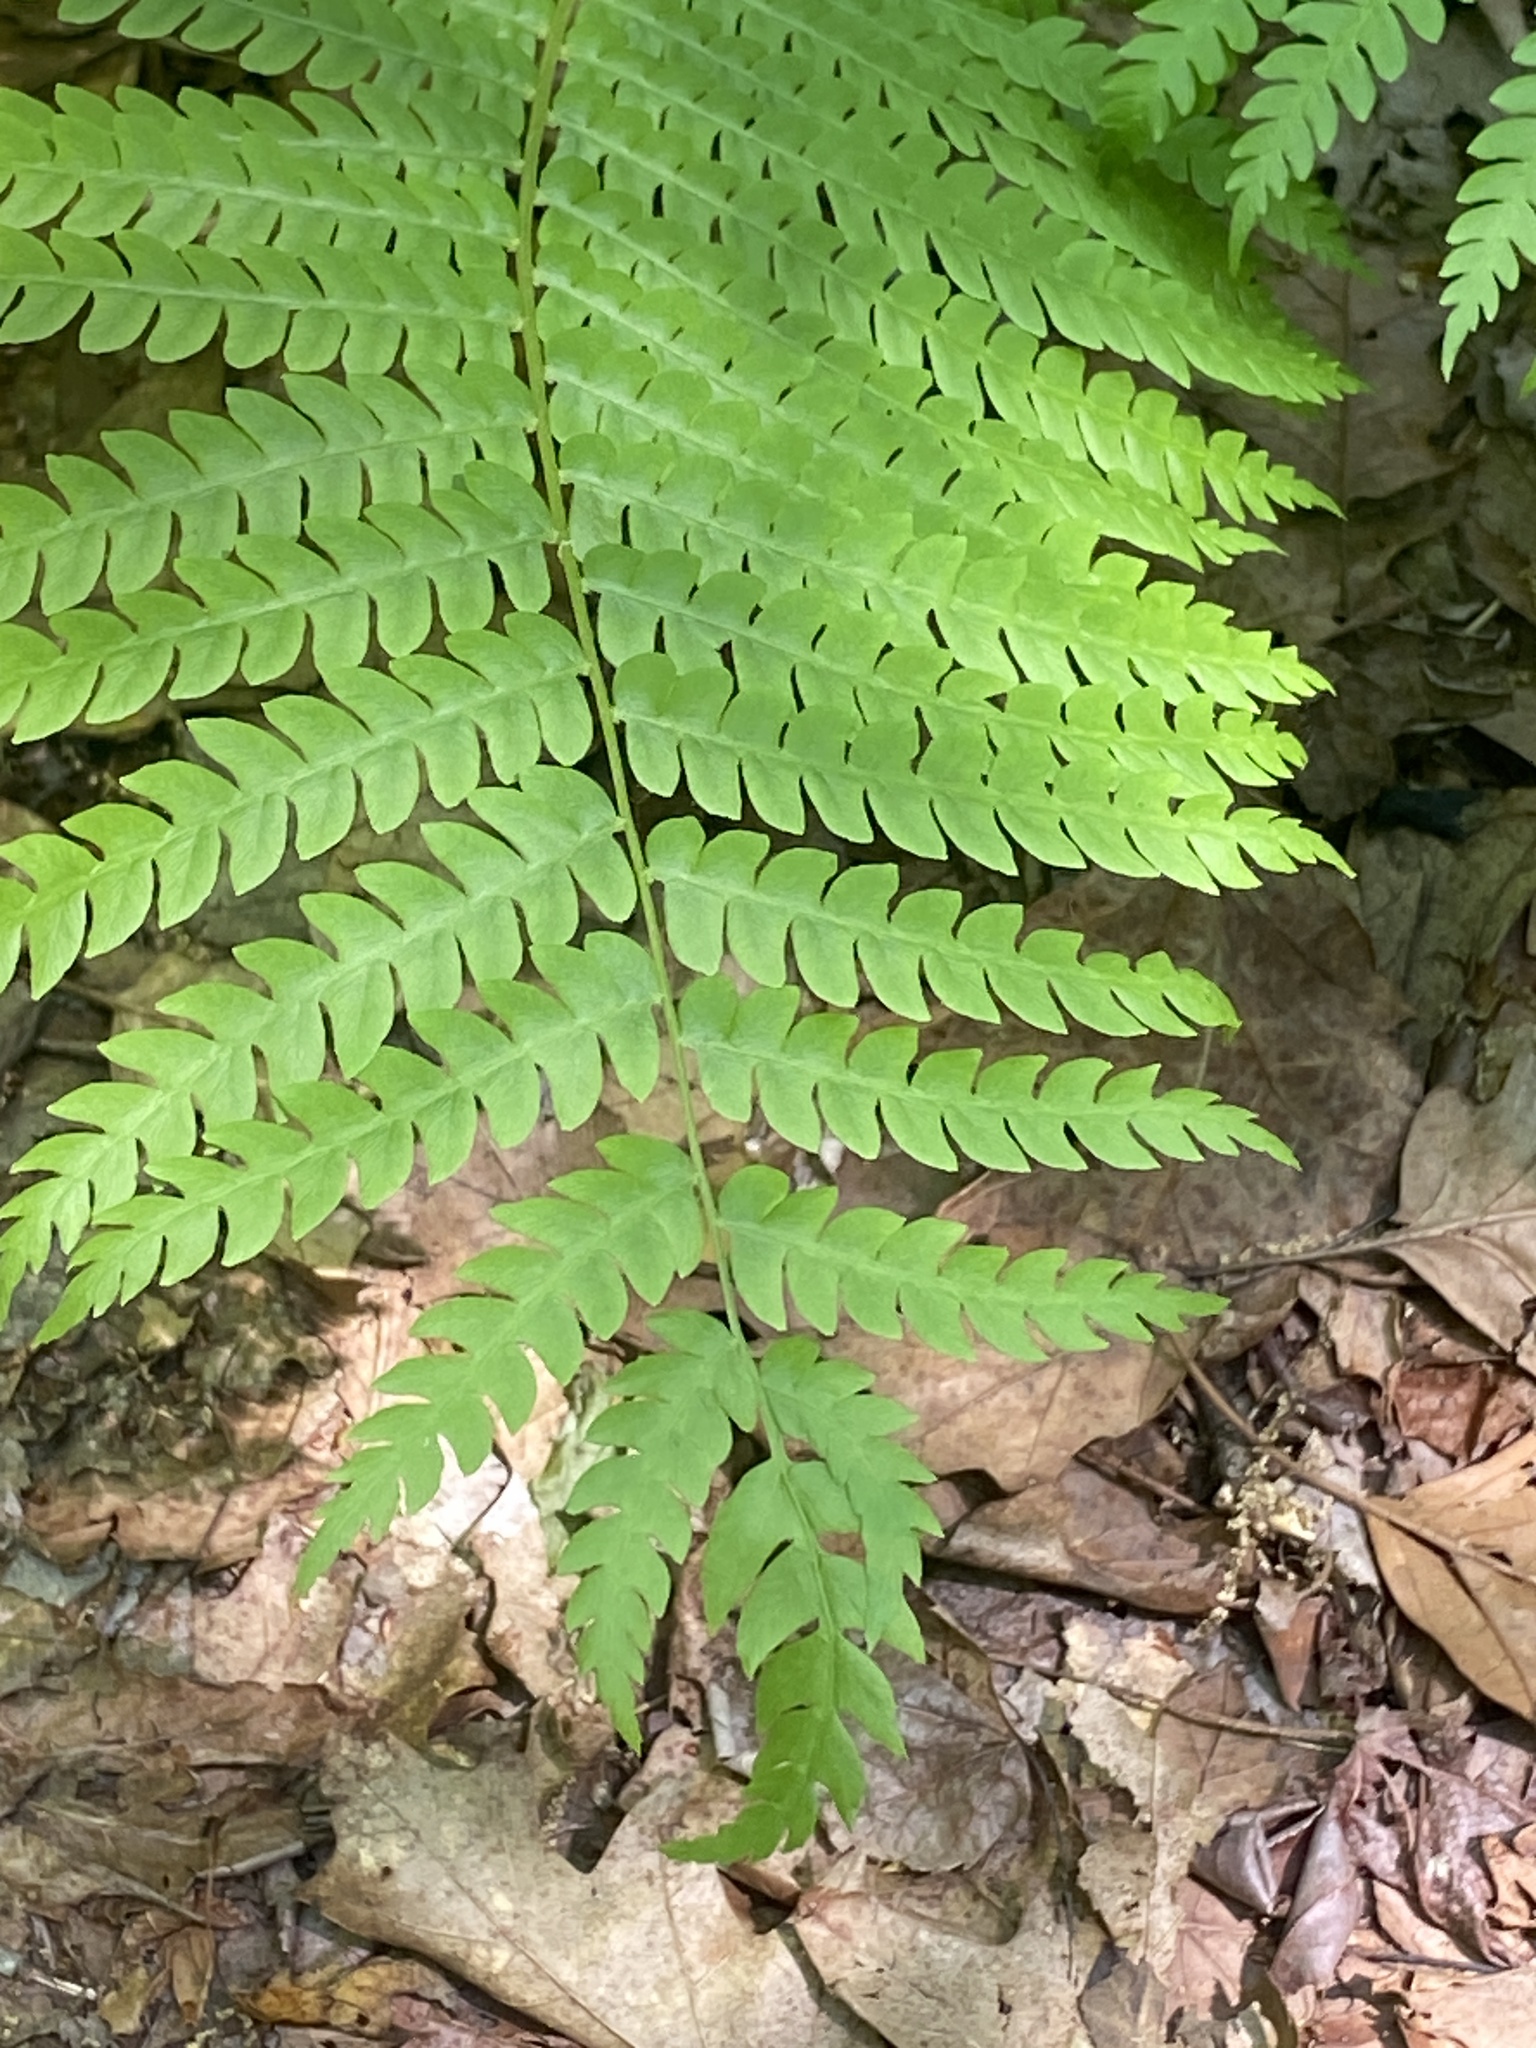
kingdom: Plantae
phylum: Tracheophyta
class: Polypodiopsida
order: Osmundales
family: Osmundaceae
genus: Osmundastrum
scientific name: Osmundastrum cinnamomeum
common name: Cinnamon fern
